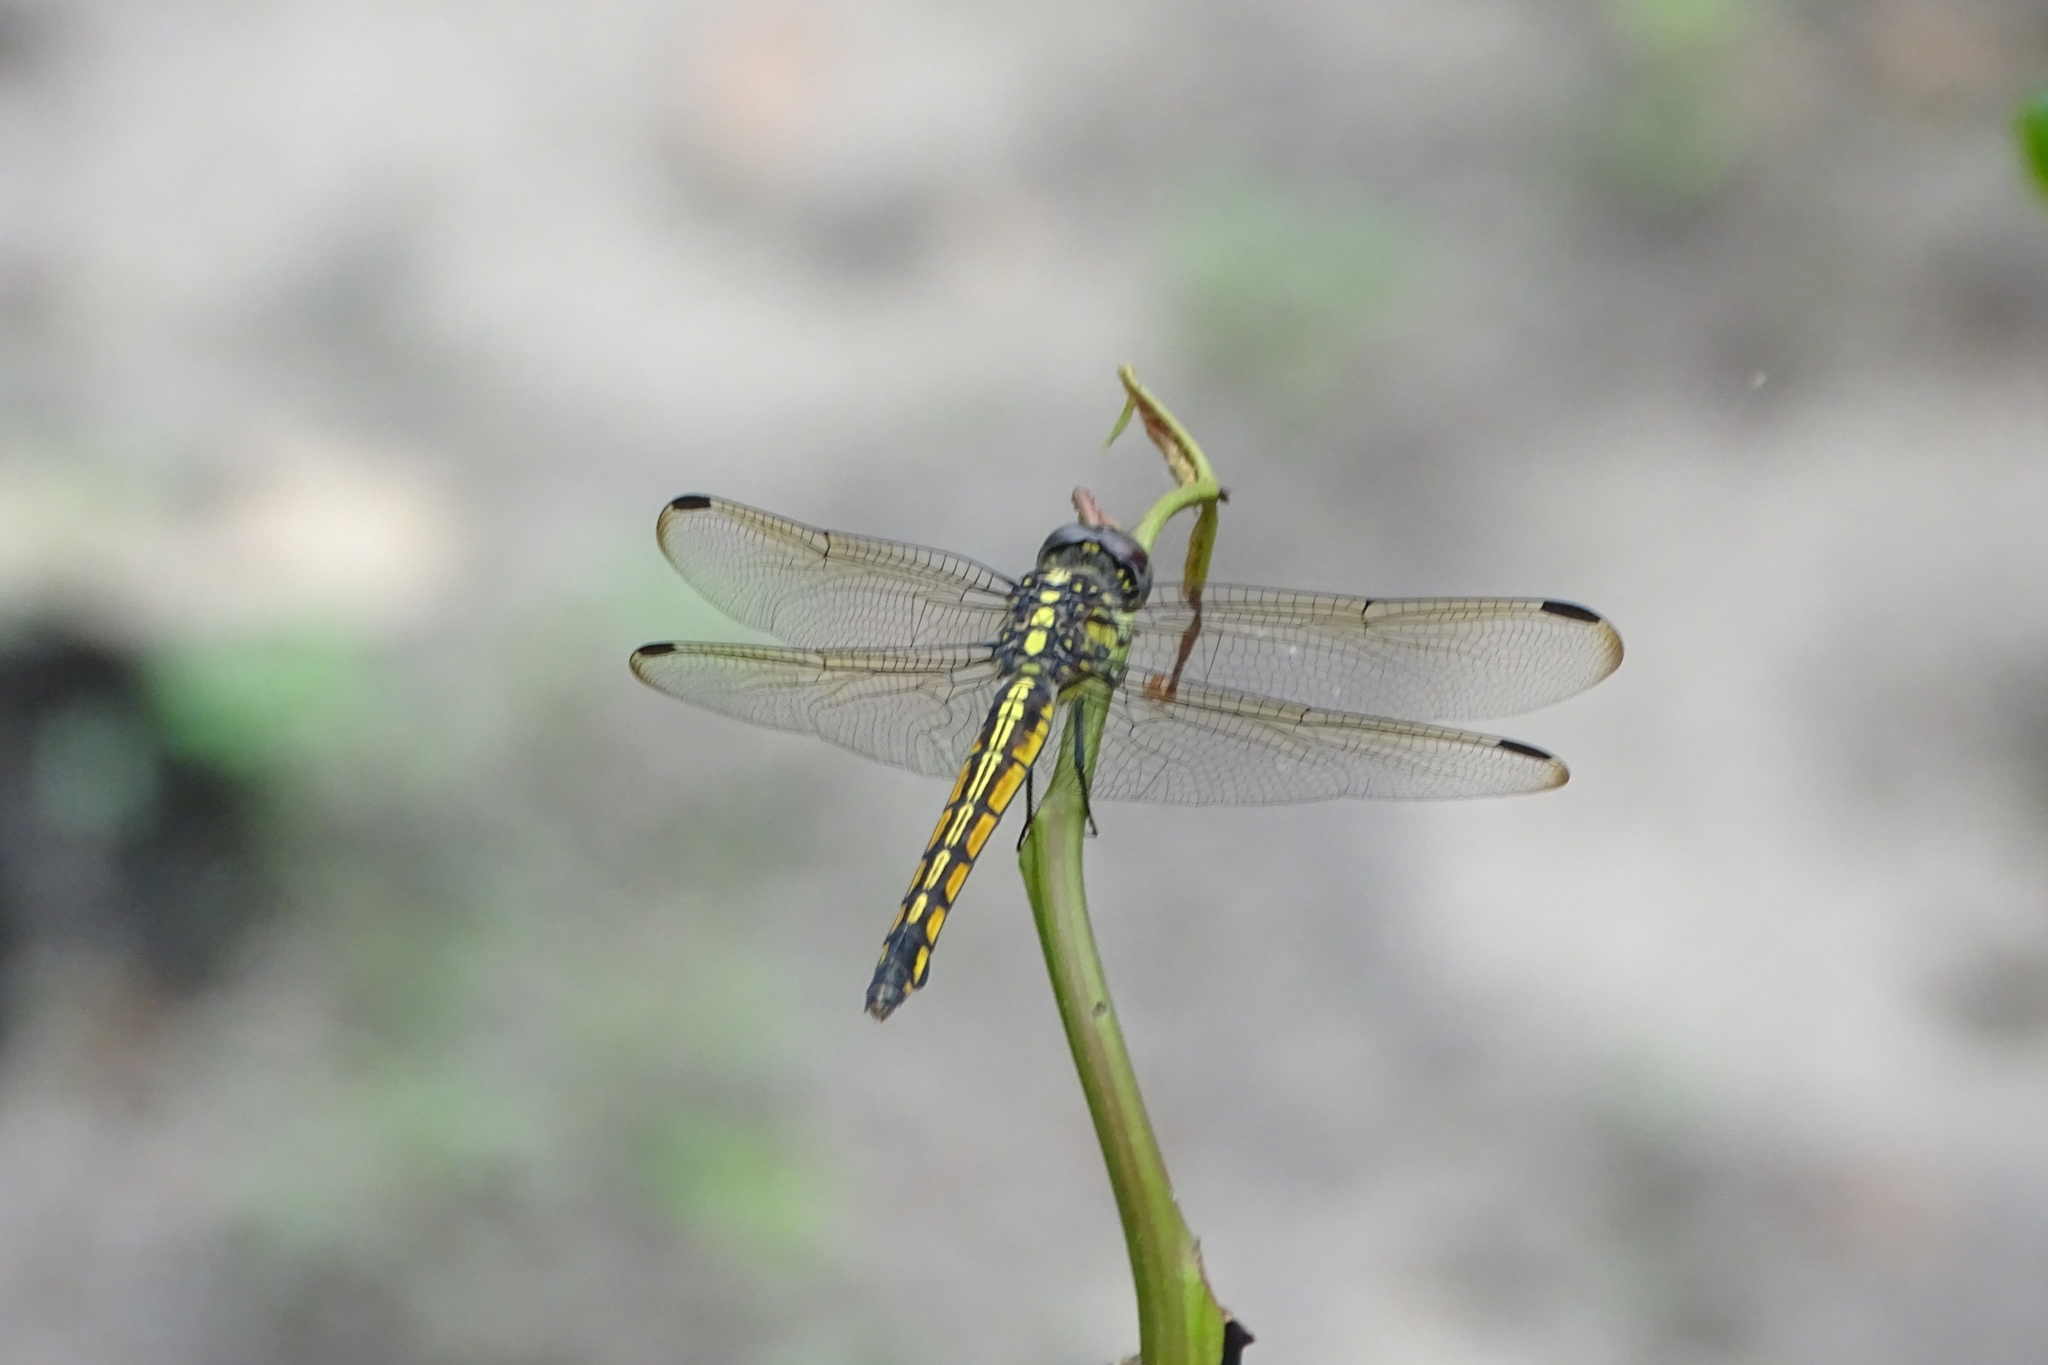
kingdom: Animalia
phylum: Arthropoda
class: Insecta
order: Odonata
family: Libellulidae
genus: Potamarcha
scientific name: Potamarcha congener
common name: Blue chaser
